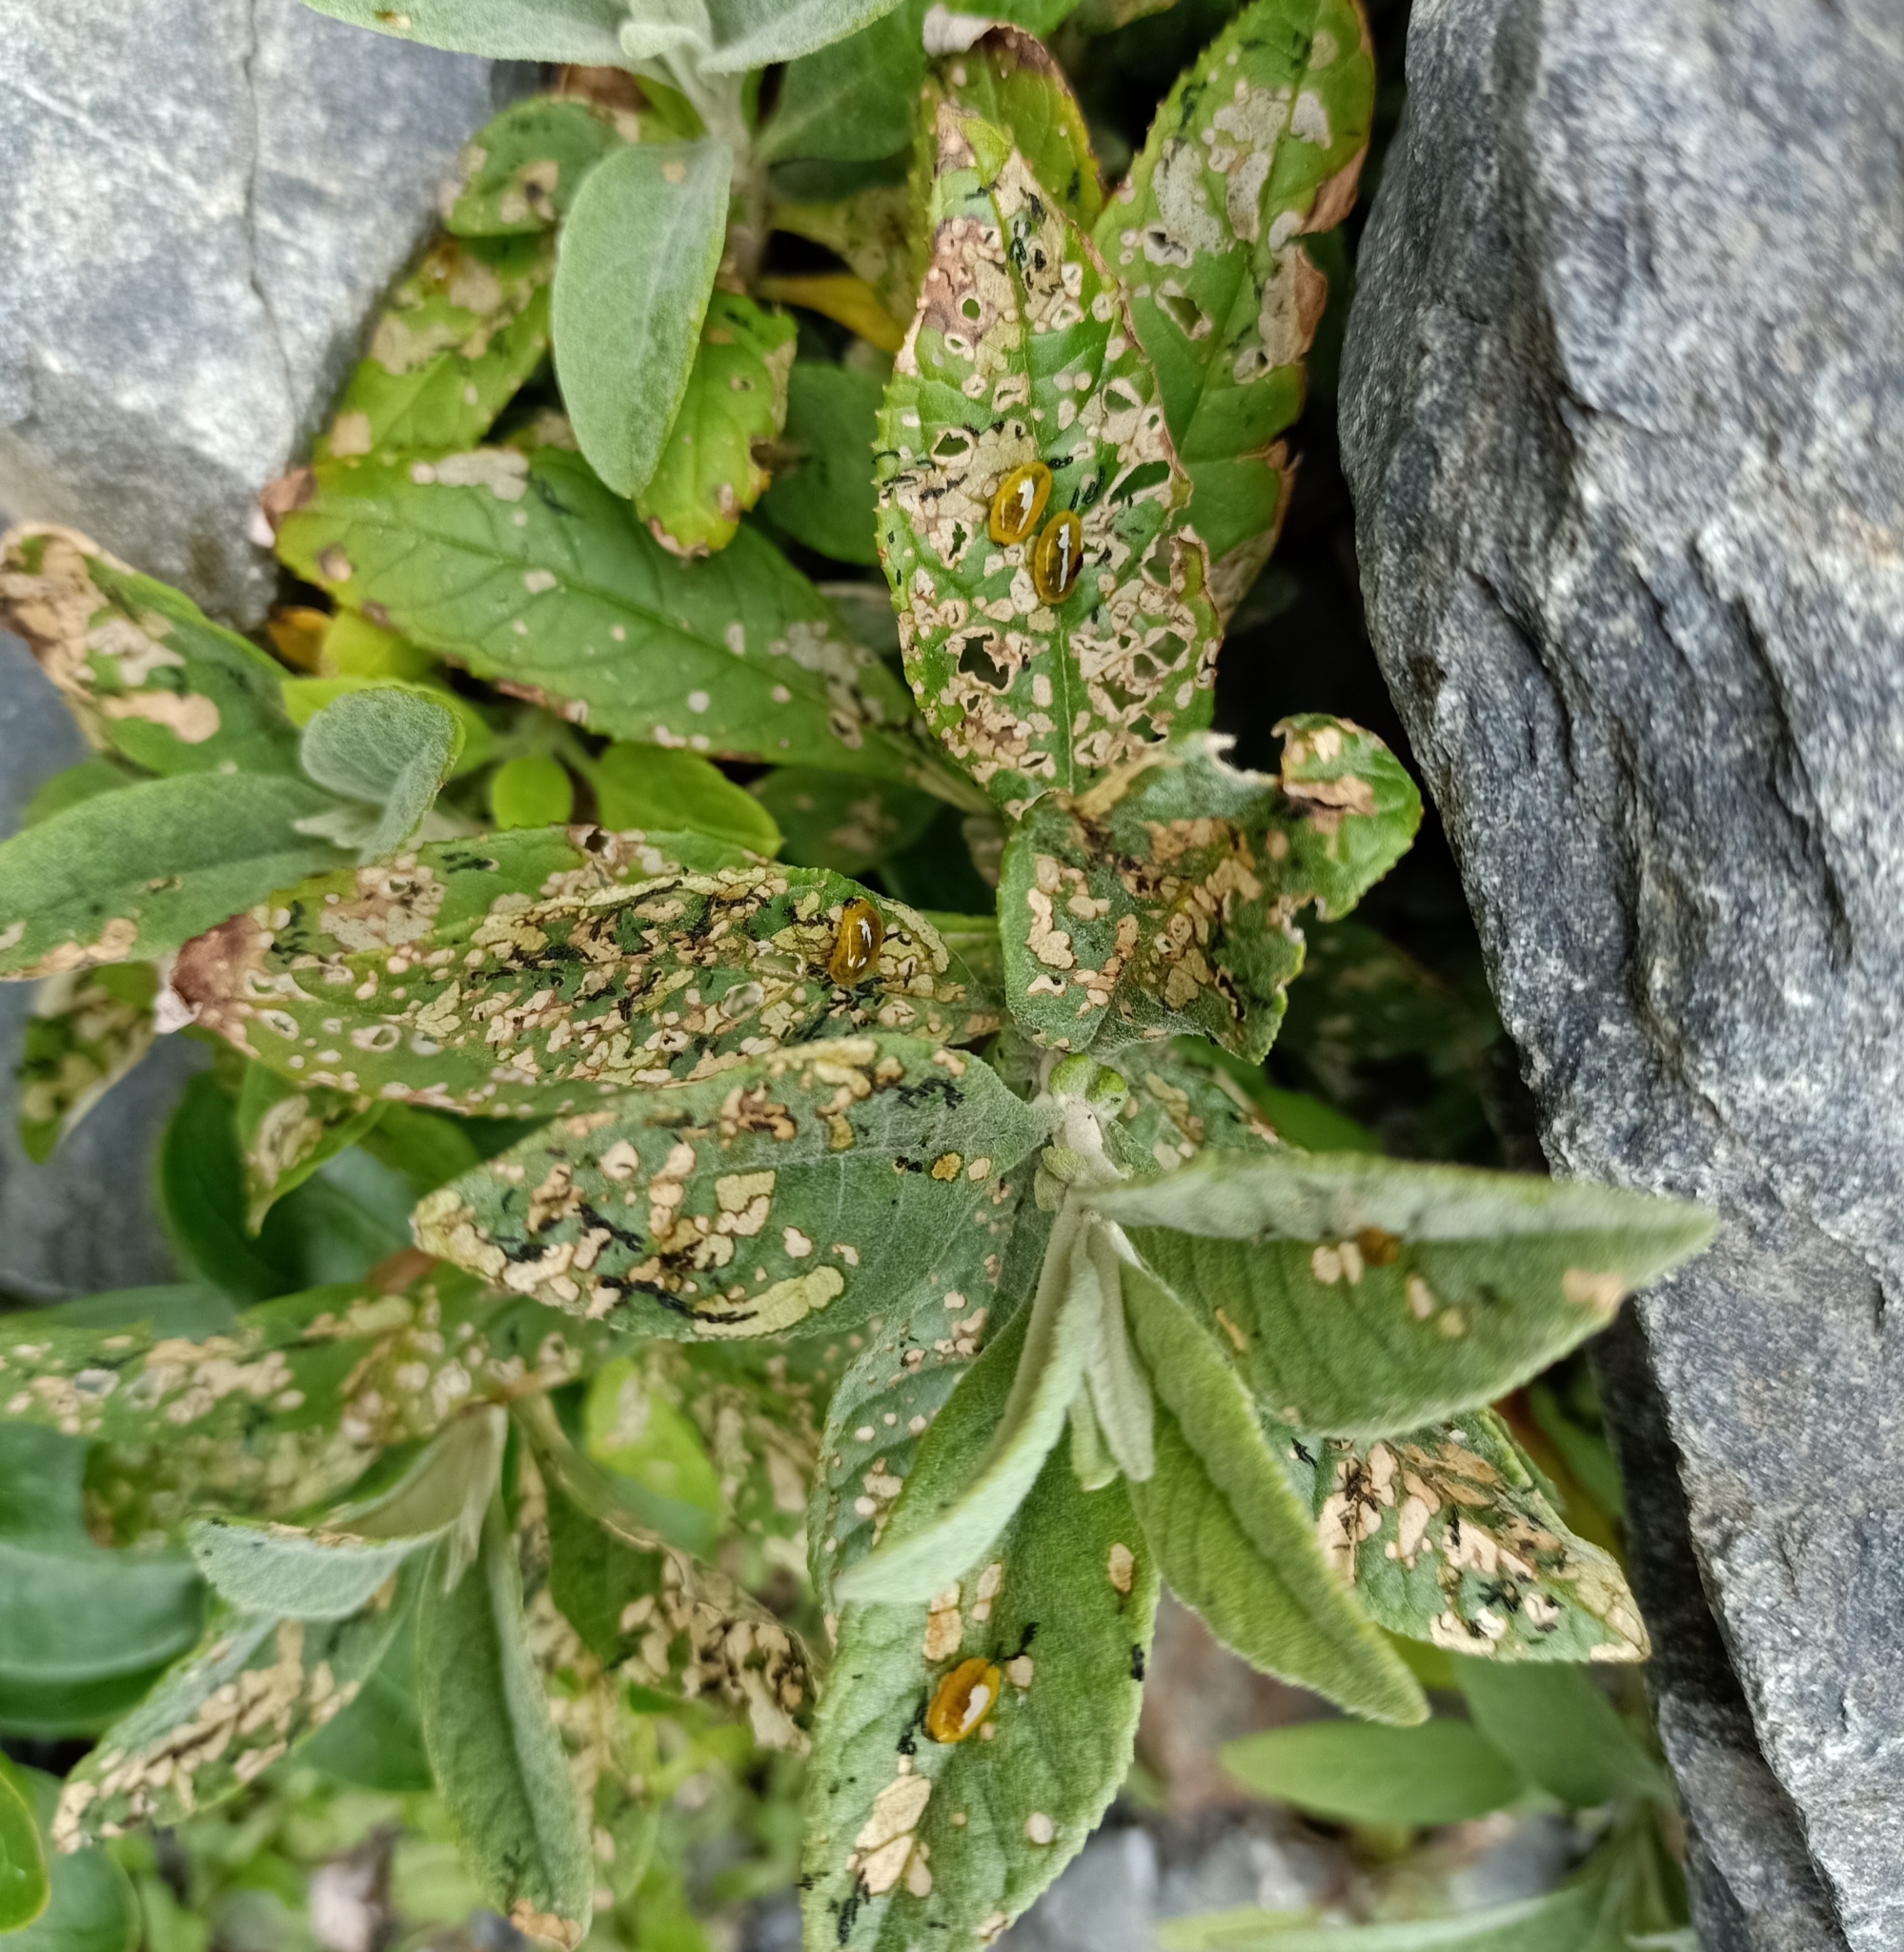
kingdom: Animalia
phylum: Arthropoda
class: Insecta
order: Coleoptera
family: Curculionidae
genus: Cleopus
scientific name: Cleopus japonicus
